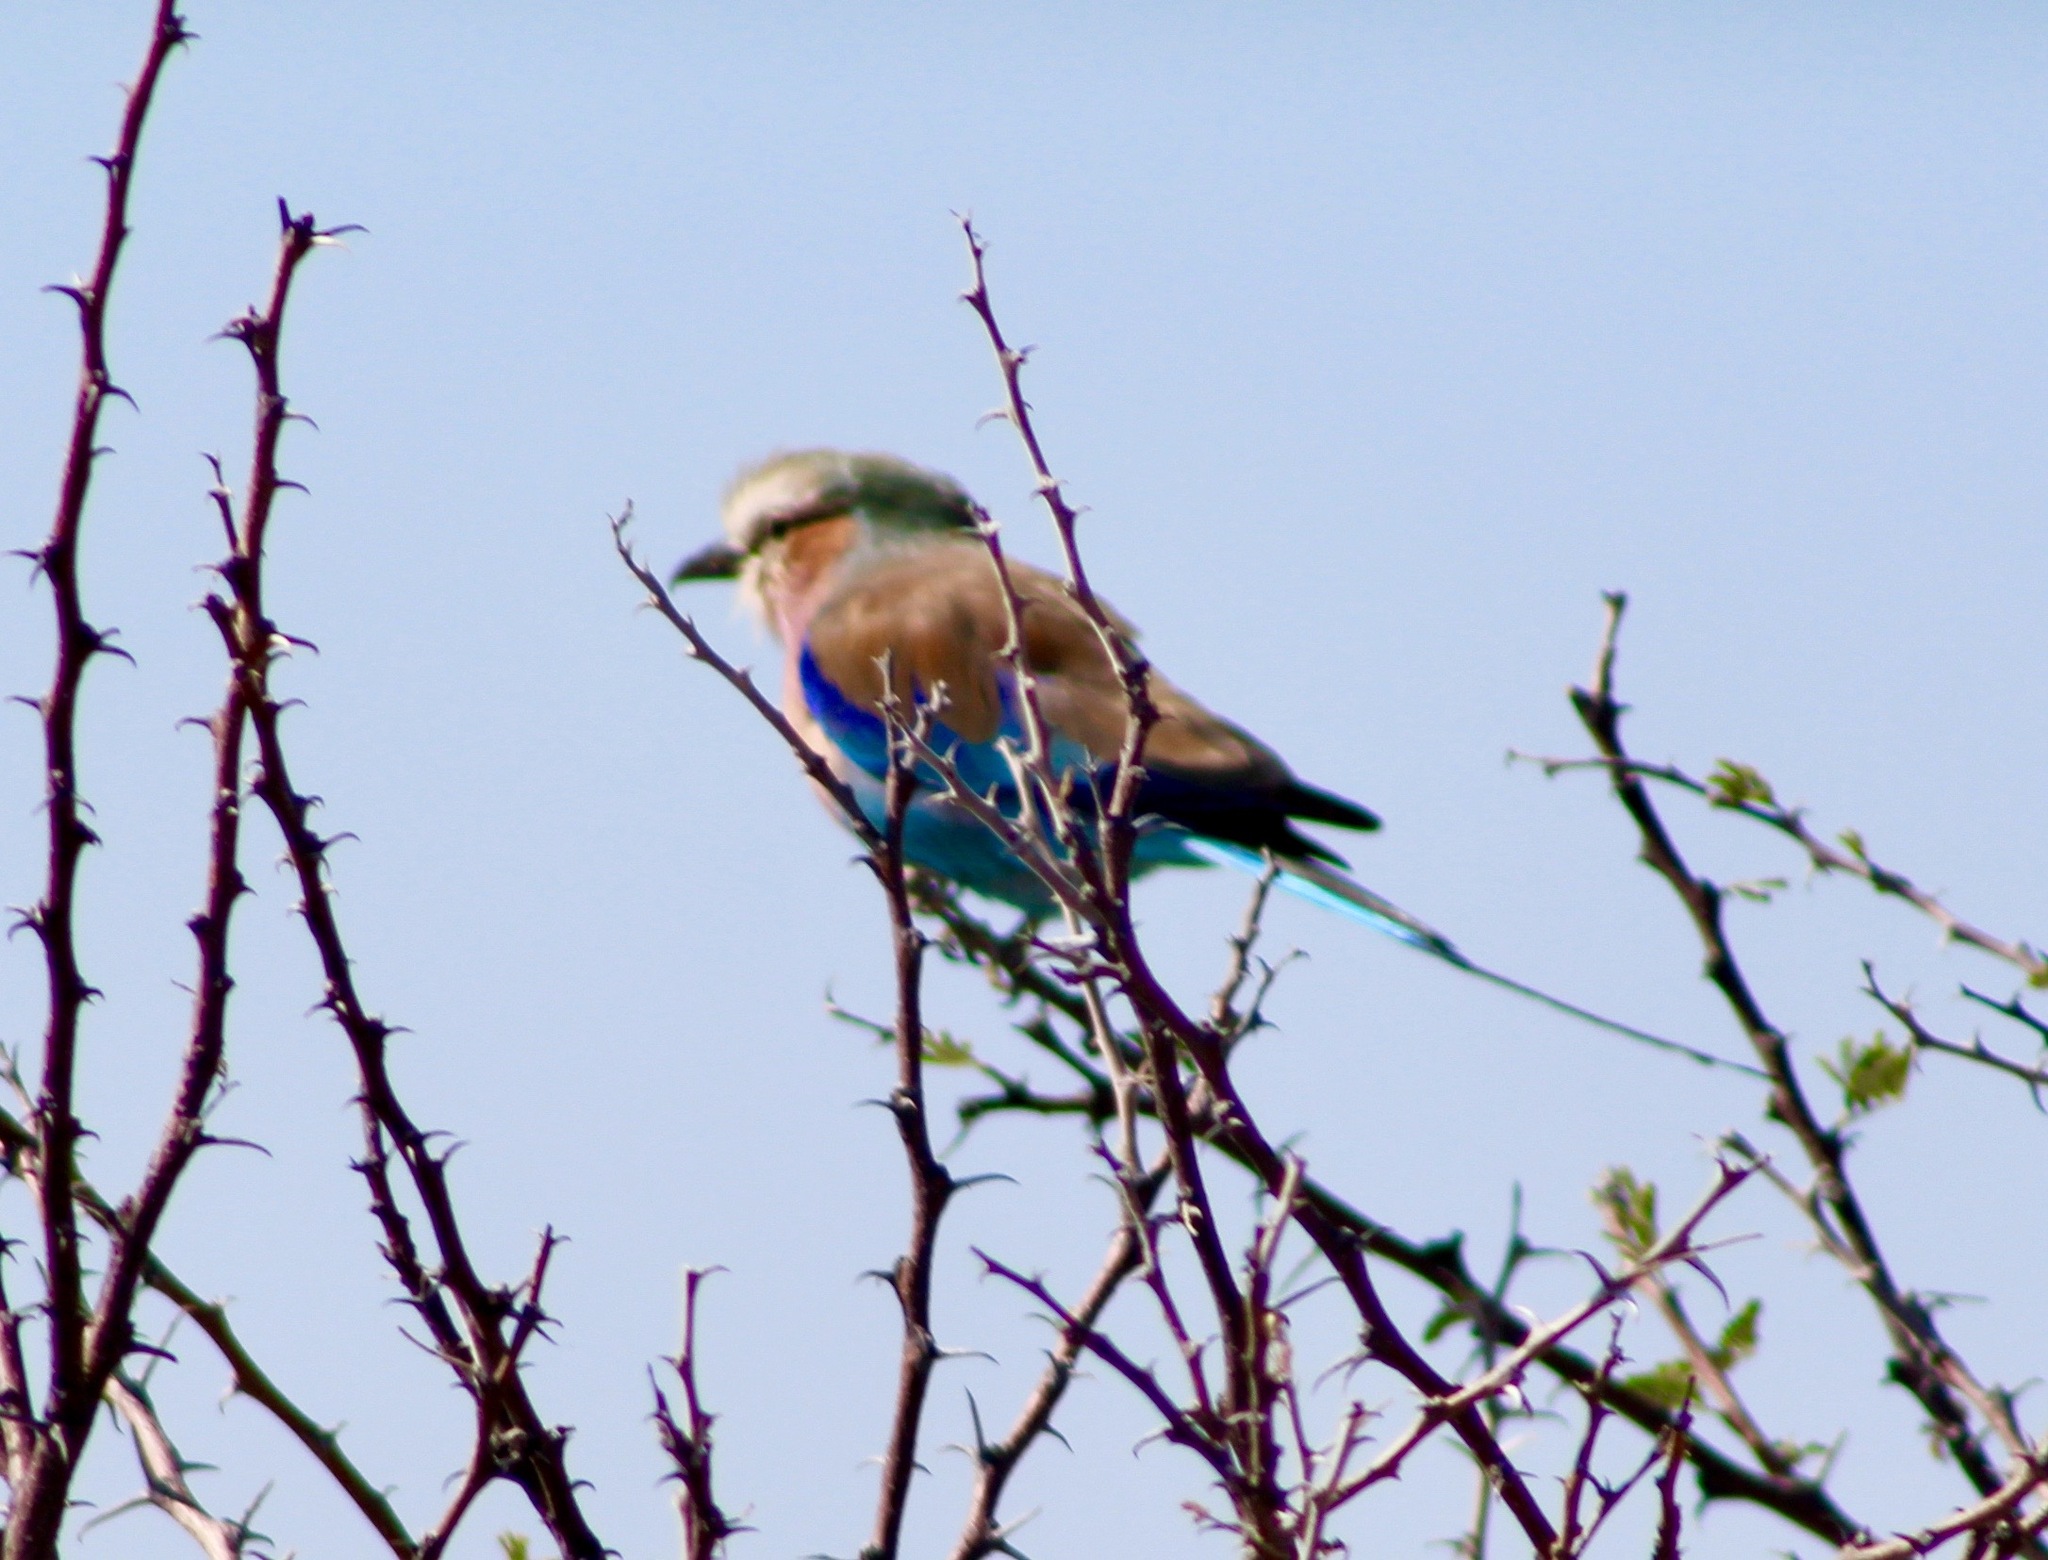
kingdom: Animalia
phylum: Chordata
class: Aves
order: Coraciiformes
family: Coraciidae
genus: Coracias
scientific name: Coracias caudatus
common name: Lilac-breasted roller
